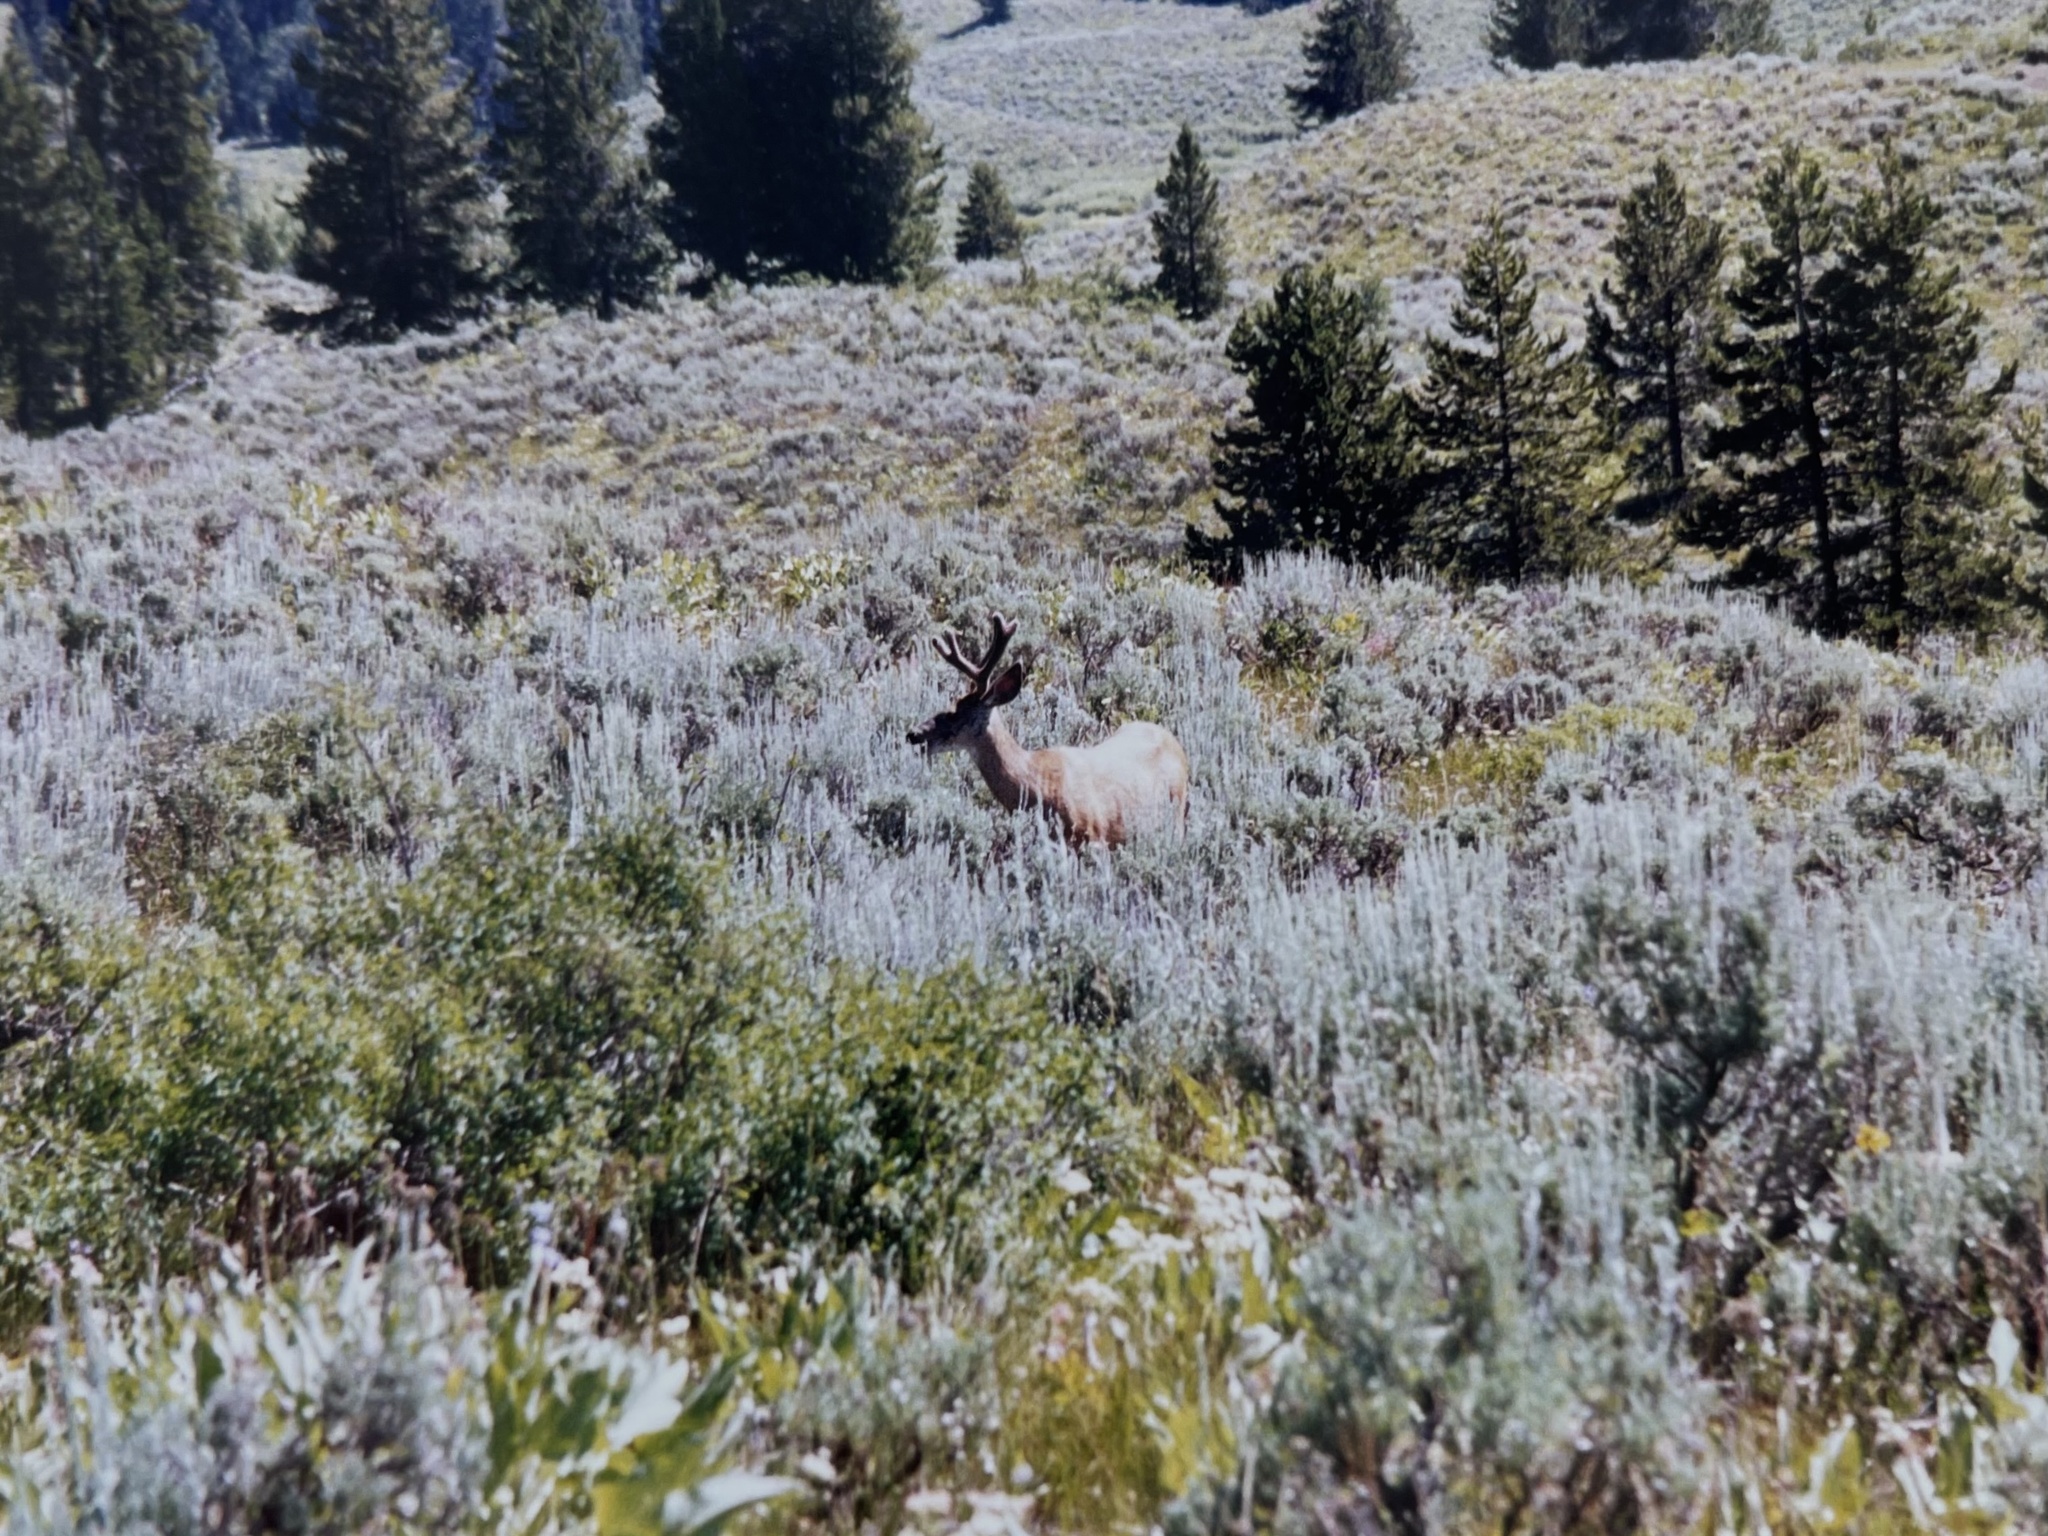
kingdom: Animalia
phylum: Chordata
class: Mammalia
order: Artiodactyla
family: Cervidae
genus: Cervus
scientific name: Cervus elaphus
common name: Red deer
